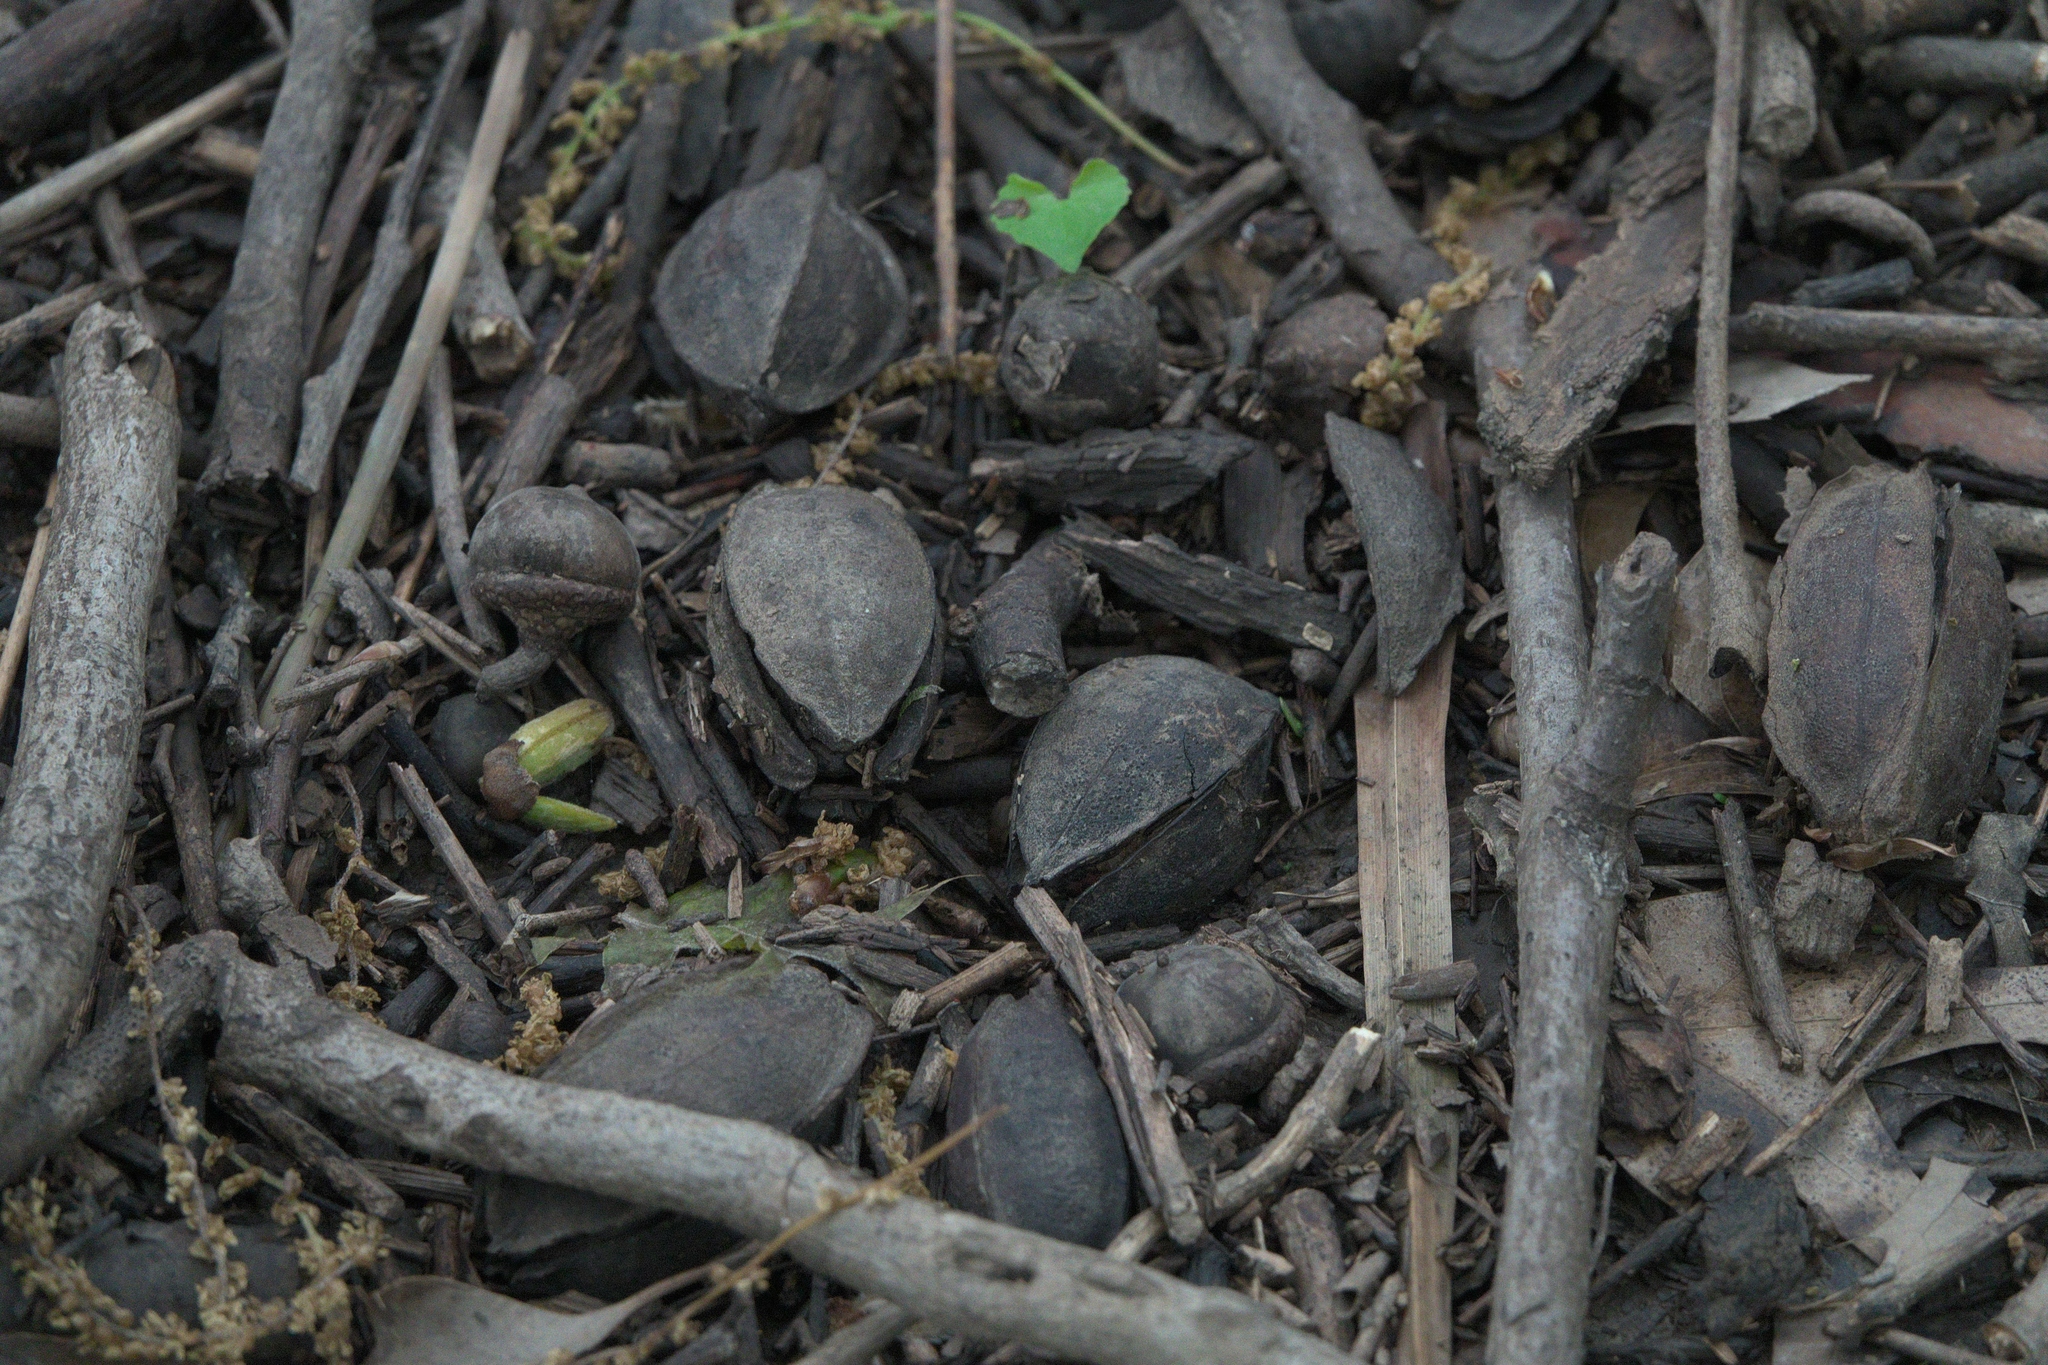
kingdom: Plantae
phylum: Tracheophyta
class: Magnoliopsida
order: Fagales
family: Juglandaceae
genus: Carya
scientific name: Carya illinoinensis
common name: Pecan
